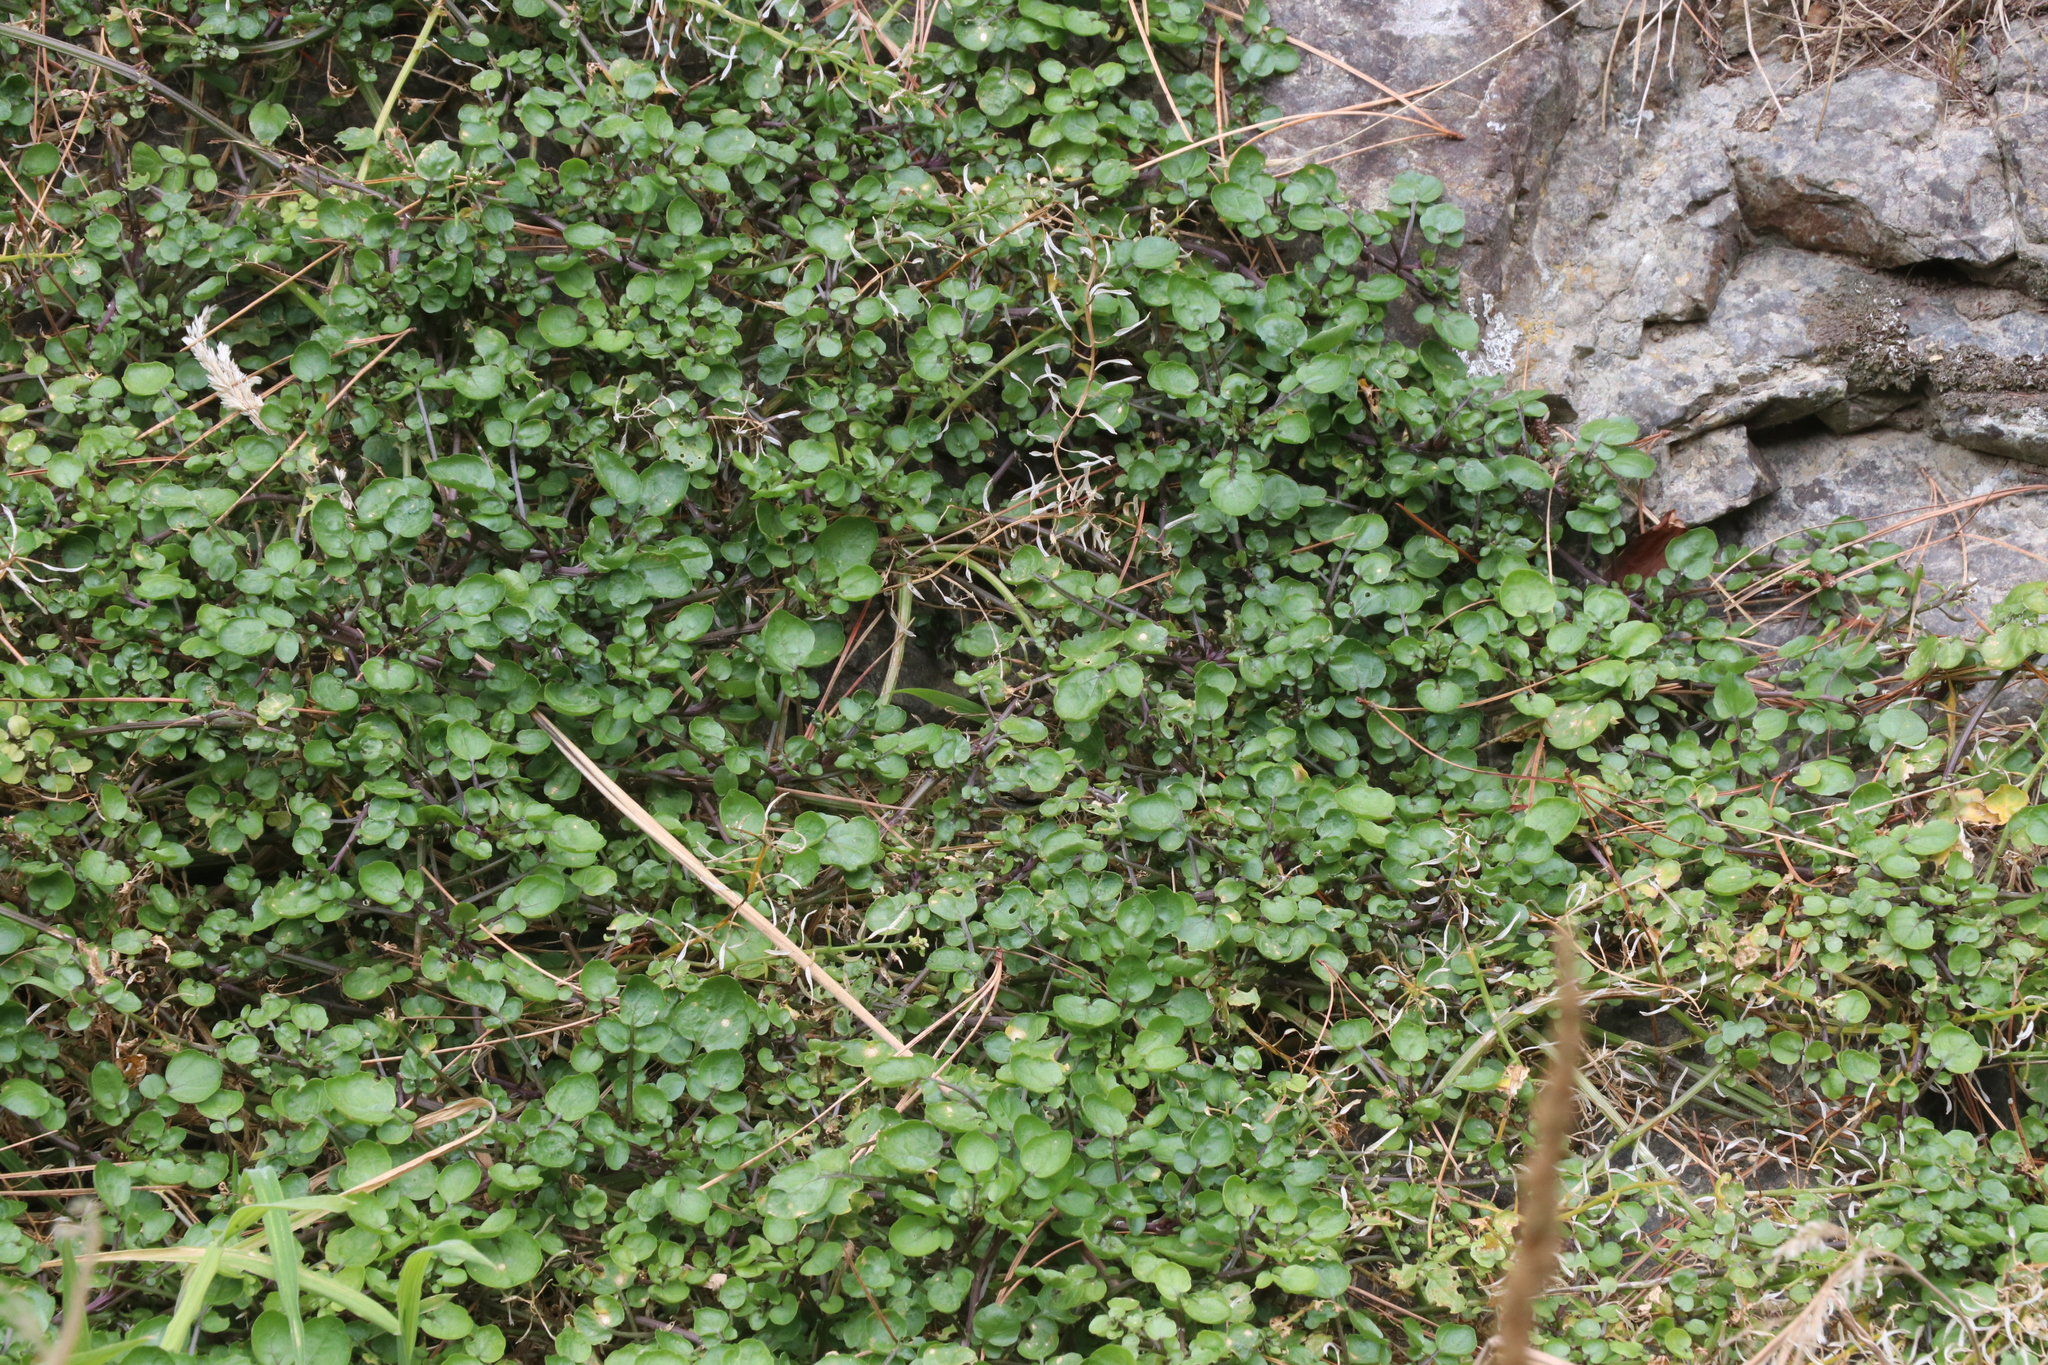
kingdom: Plantae
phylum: Tracheophyta
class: Magnoliopsida
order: Brassicales
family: Brassicaceae
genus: Nasturtium
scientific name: Nasturtium officinale
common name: Watercress
